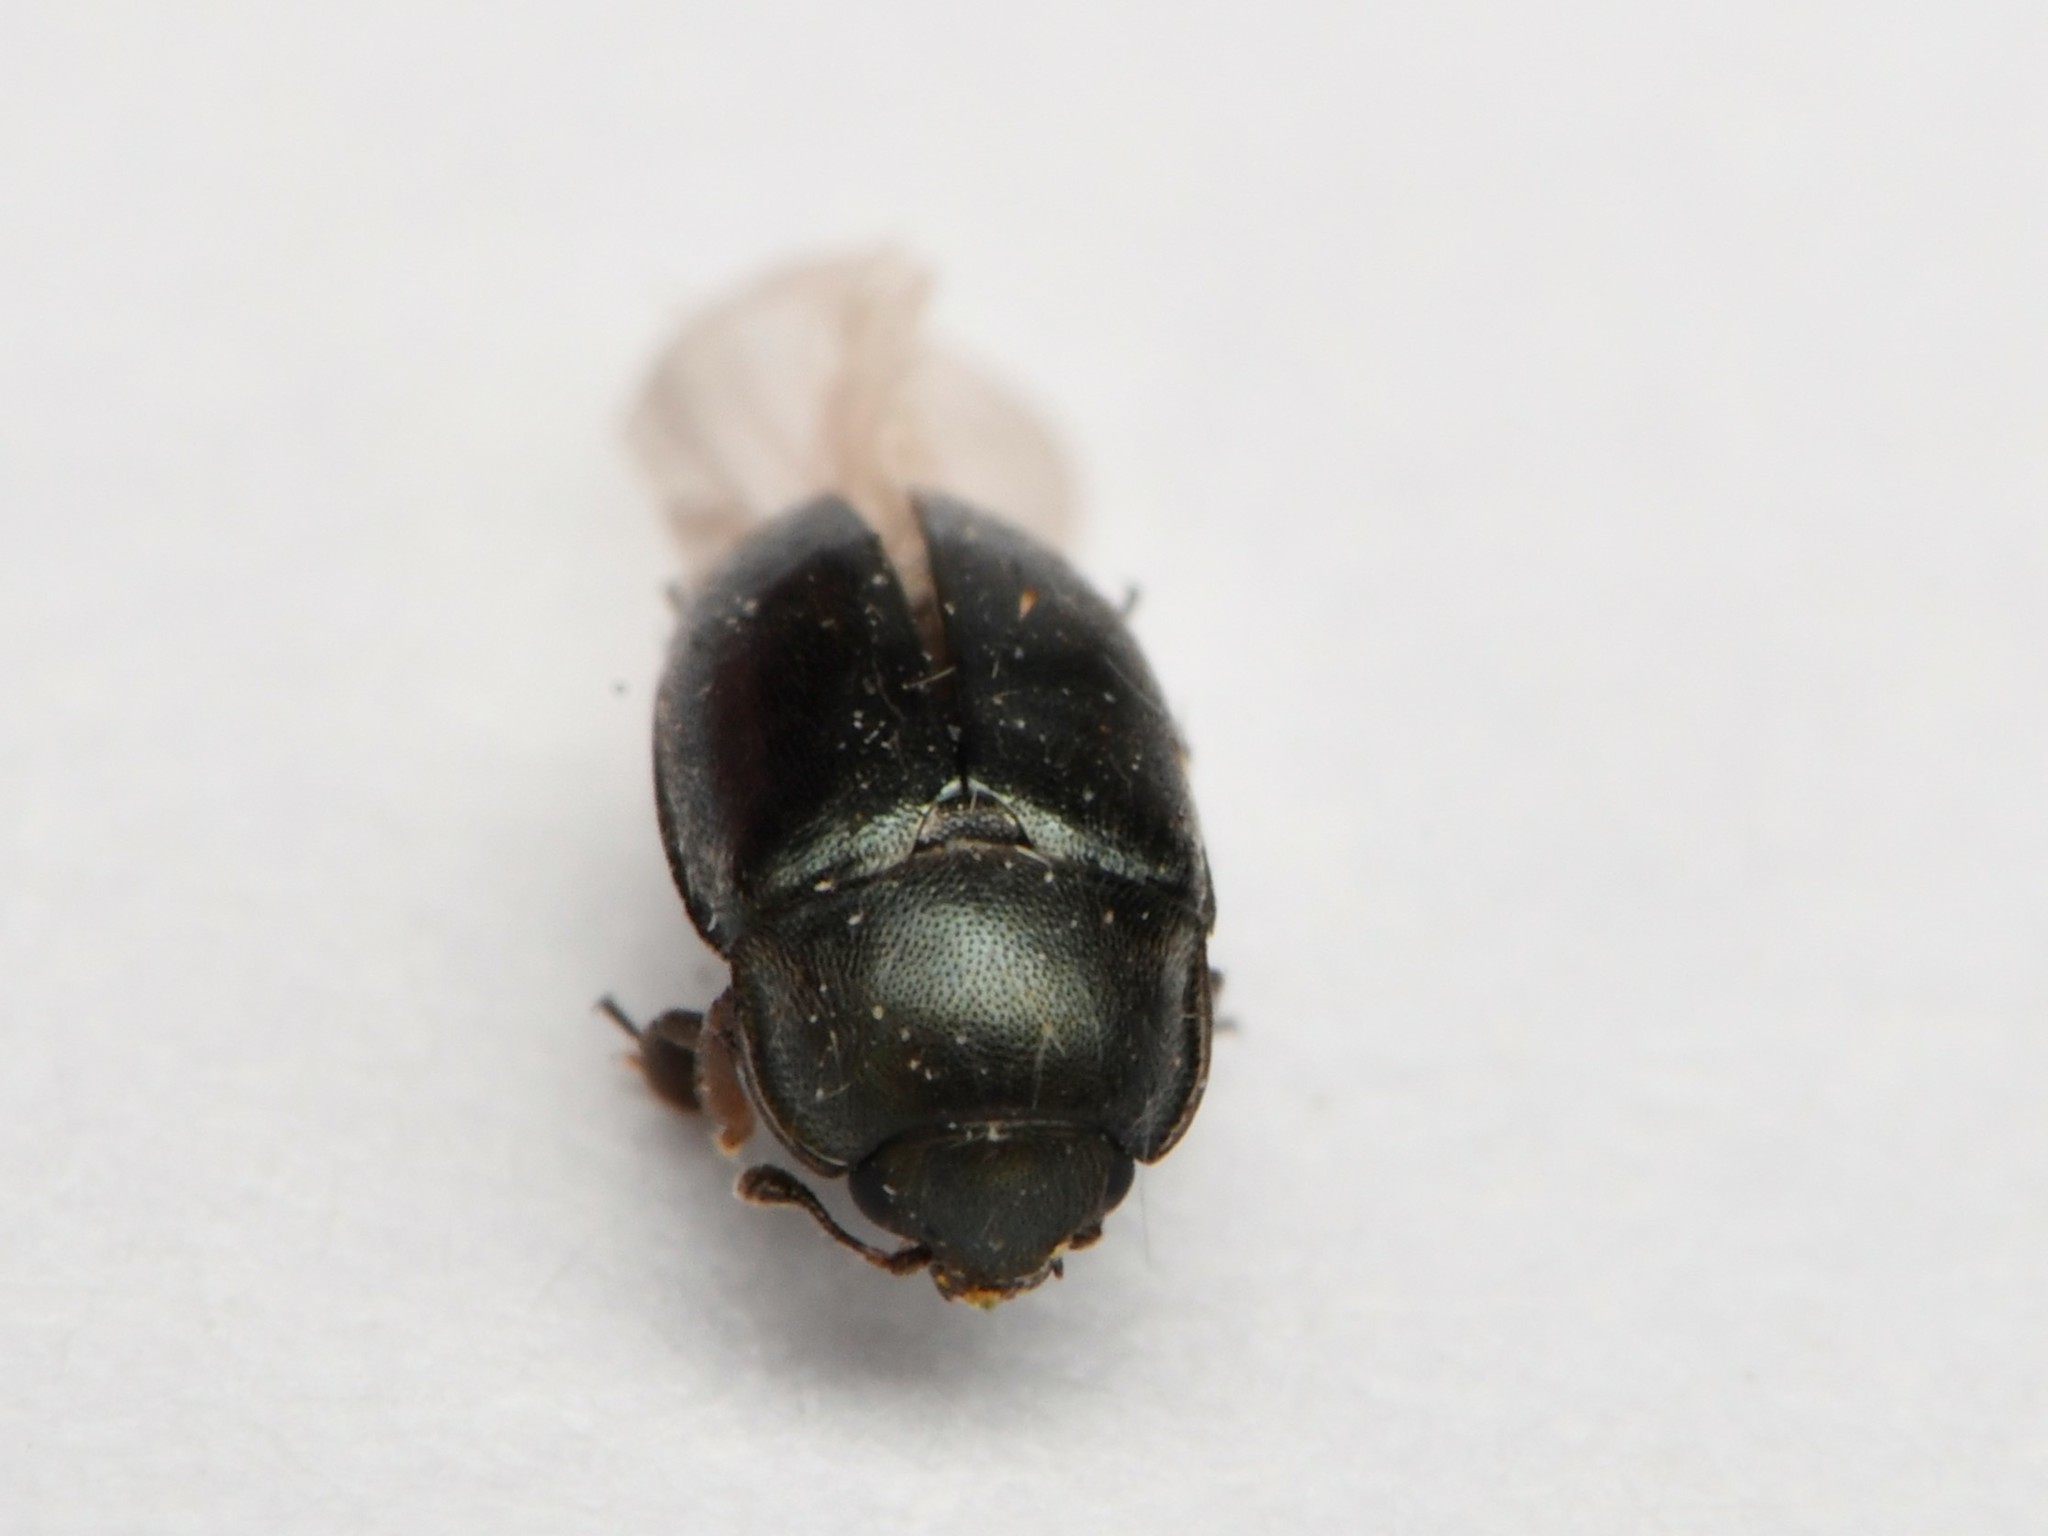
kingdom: Animalia
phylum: Arthropoda
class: Insecta
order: Coleoptera
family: Nitidulidae
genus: Brassicogethes
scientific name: Brassicogethes aeneus
